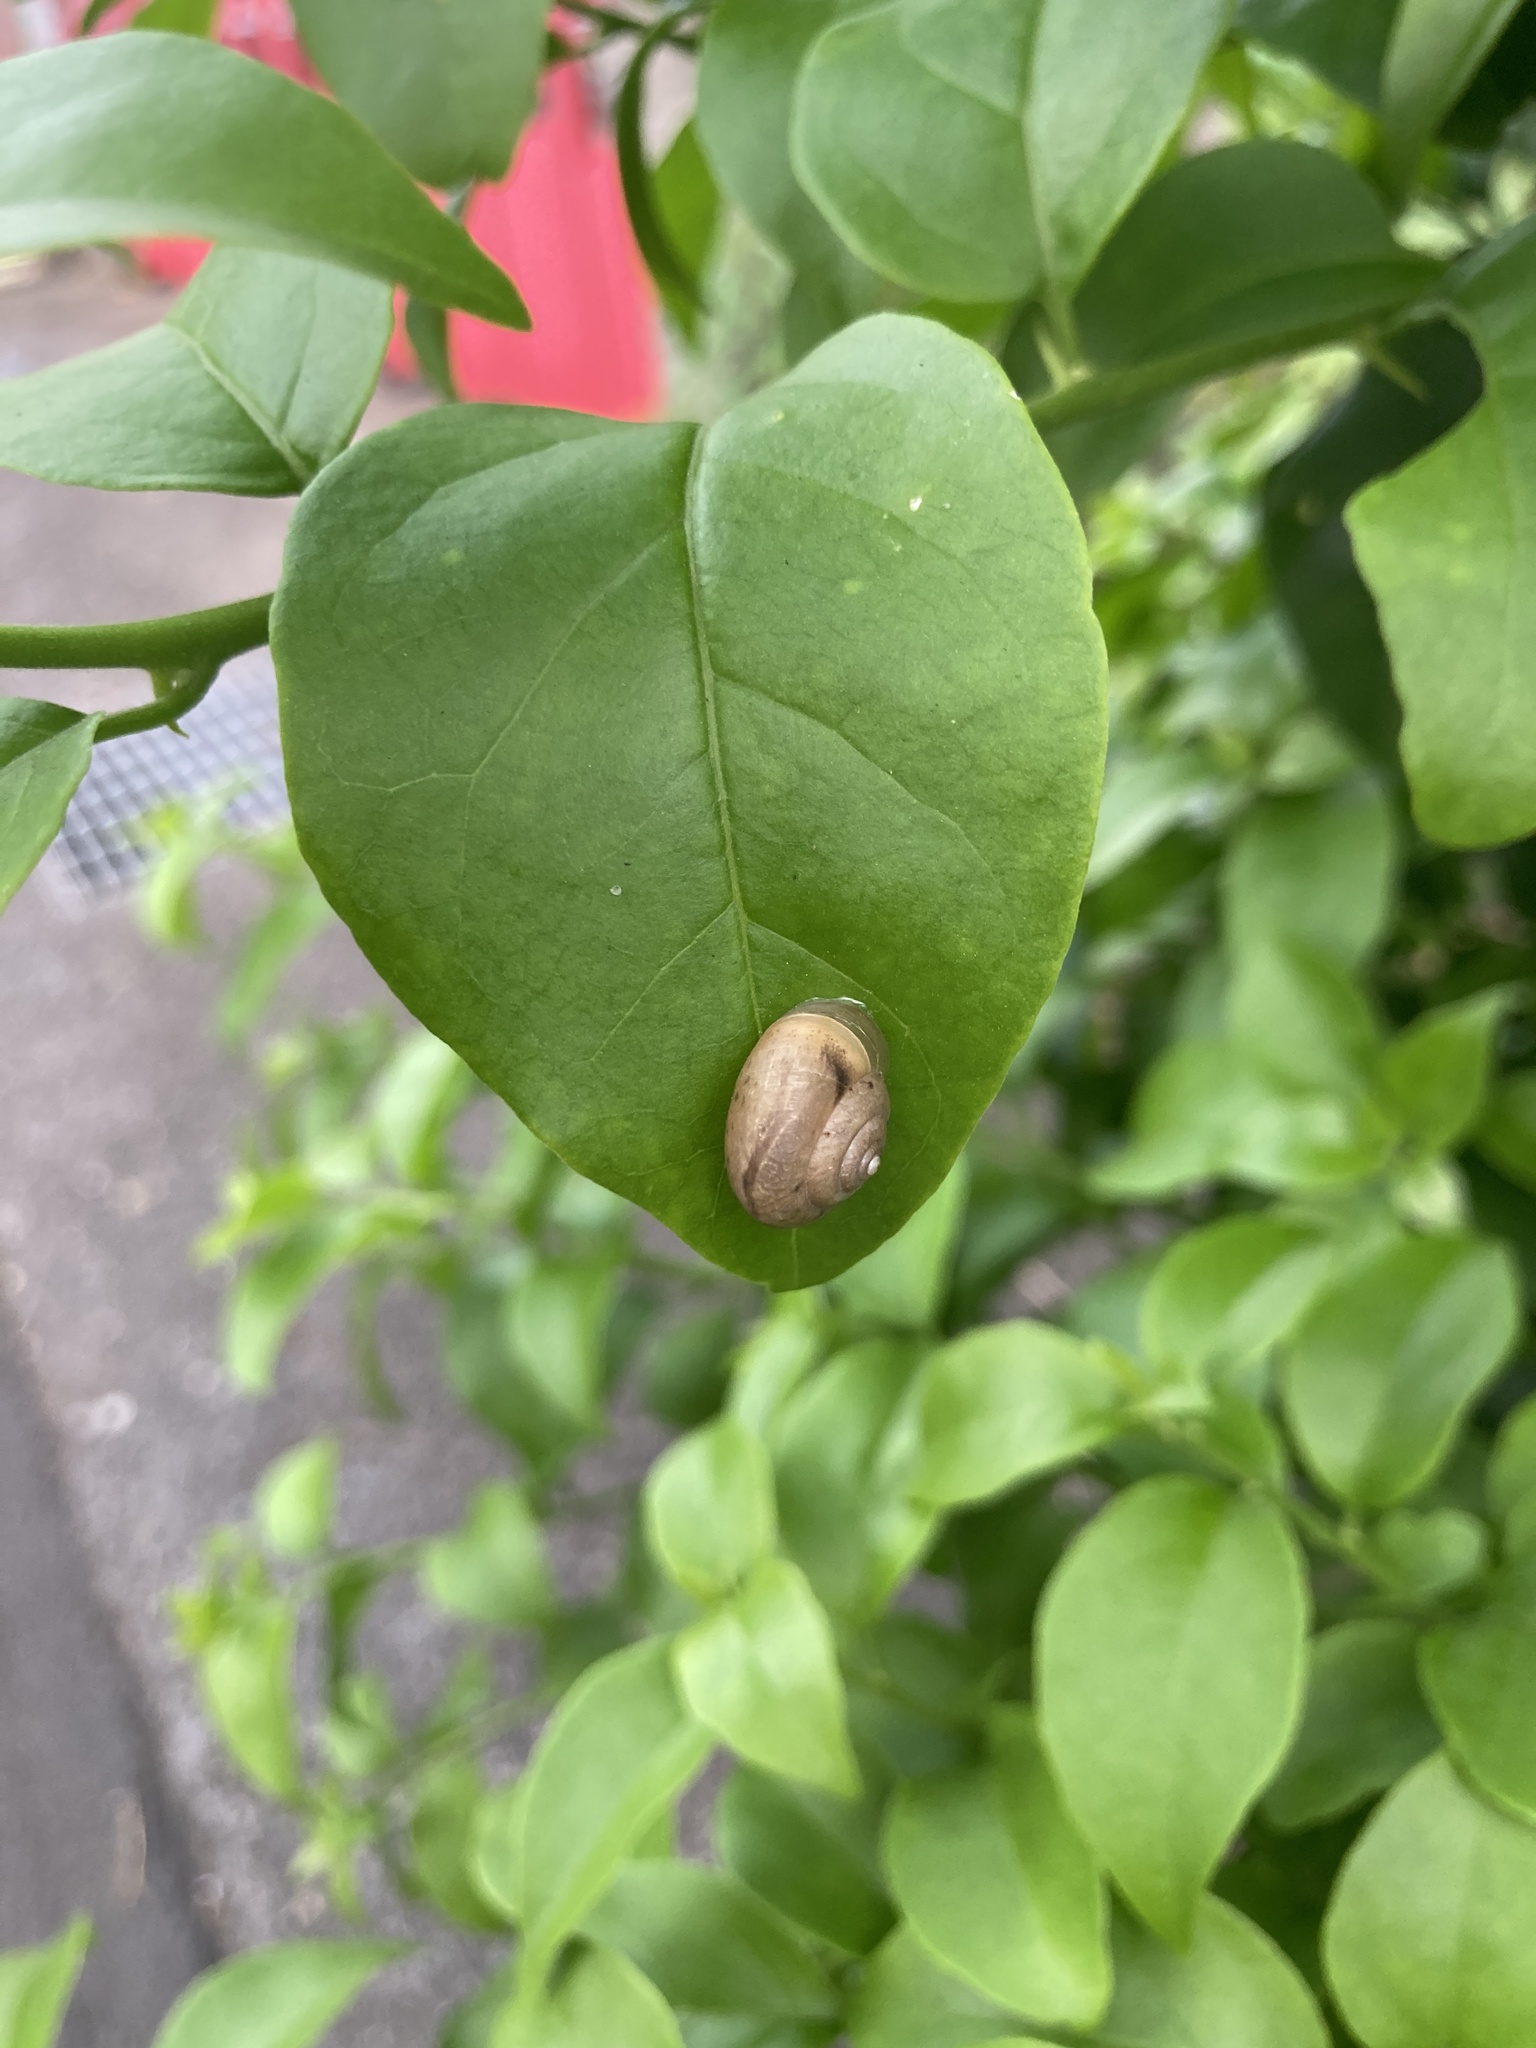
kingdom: Animalia
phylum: Mollusca
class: Gastropoda
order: Stylommatophora
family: Camaenidae
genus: Bradybaena
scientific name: Bradybaena similaris
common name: Asian trampsnail
